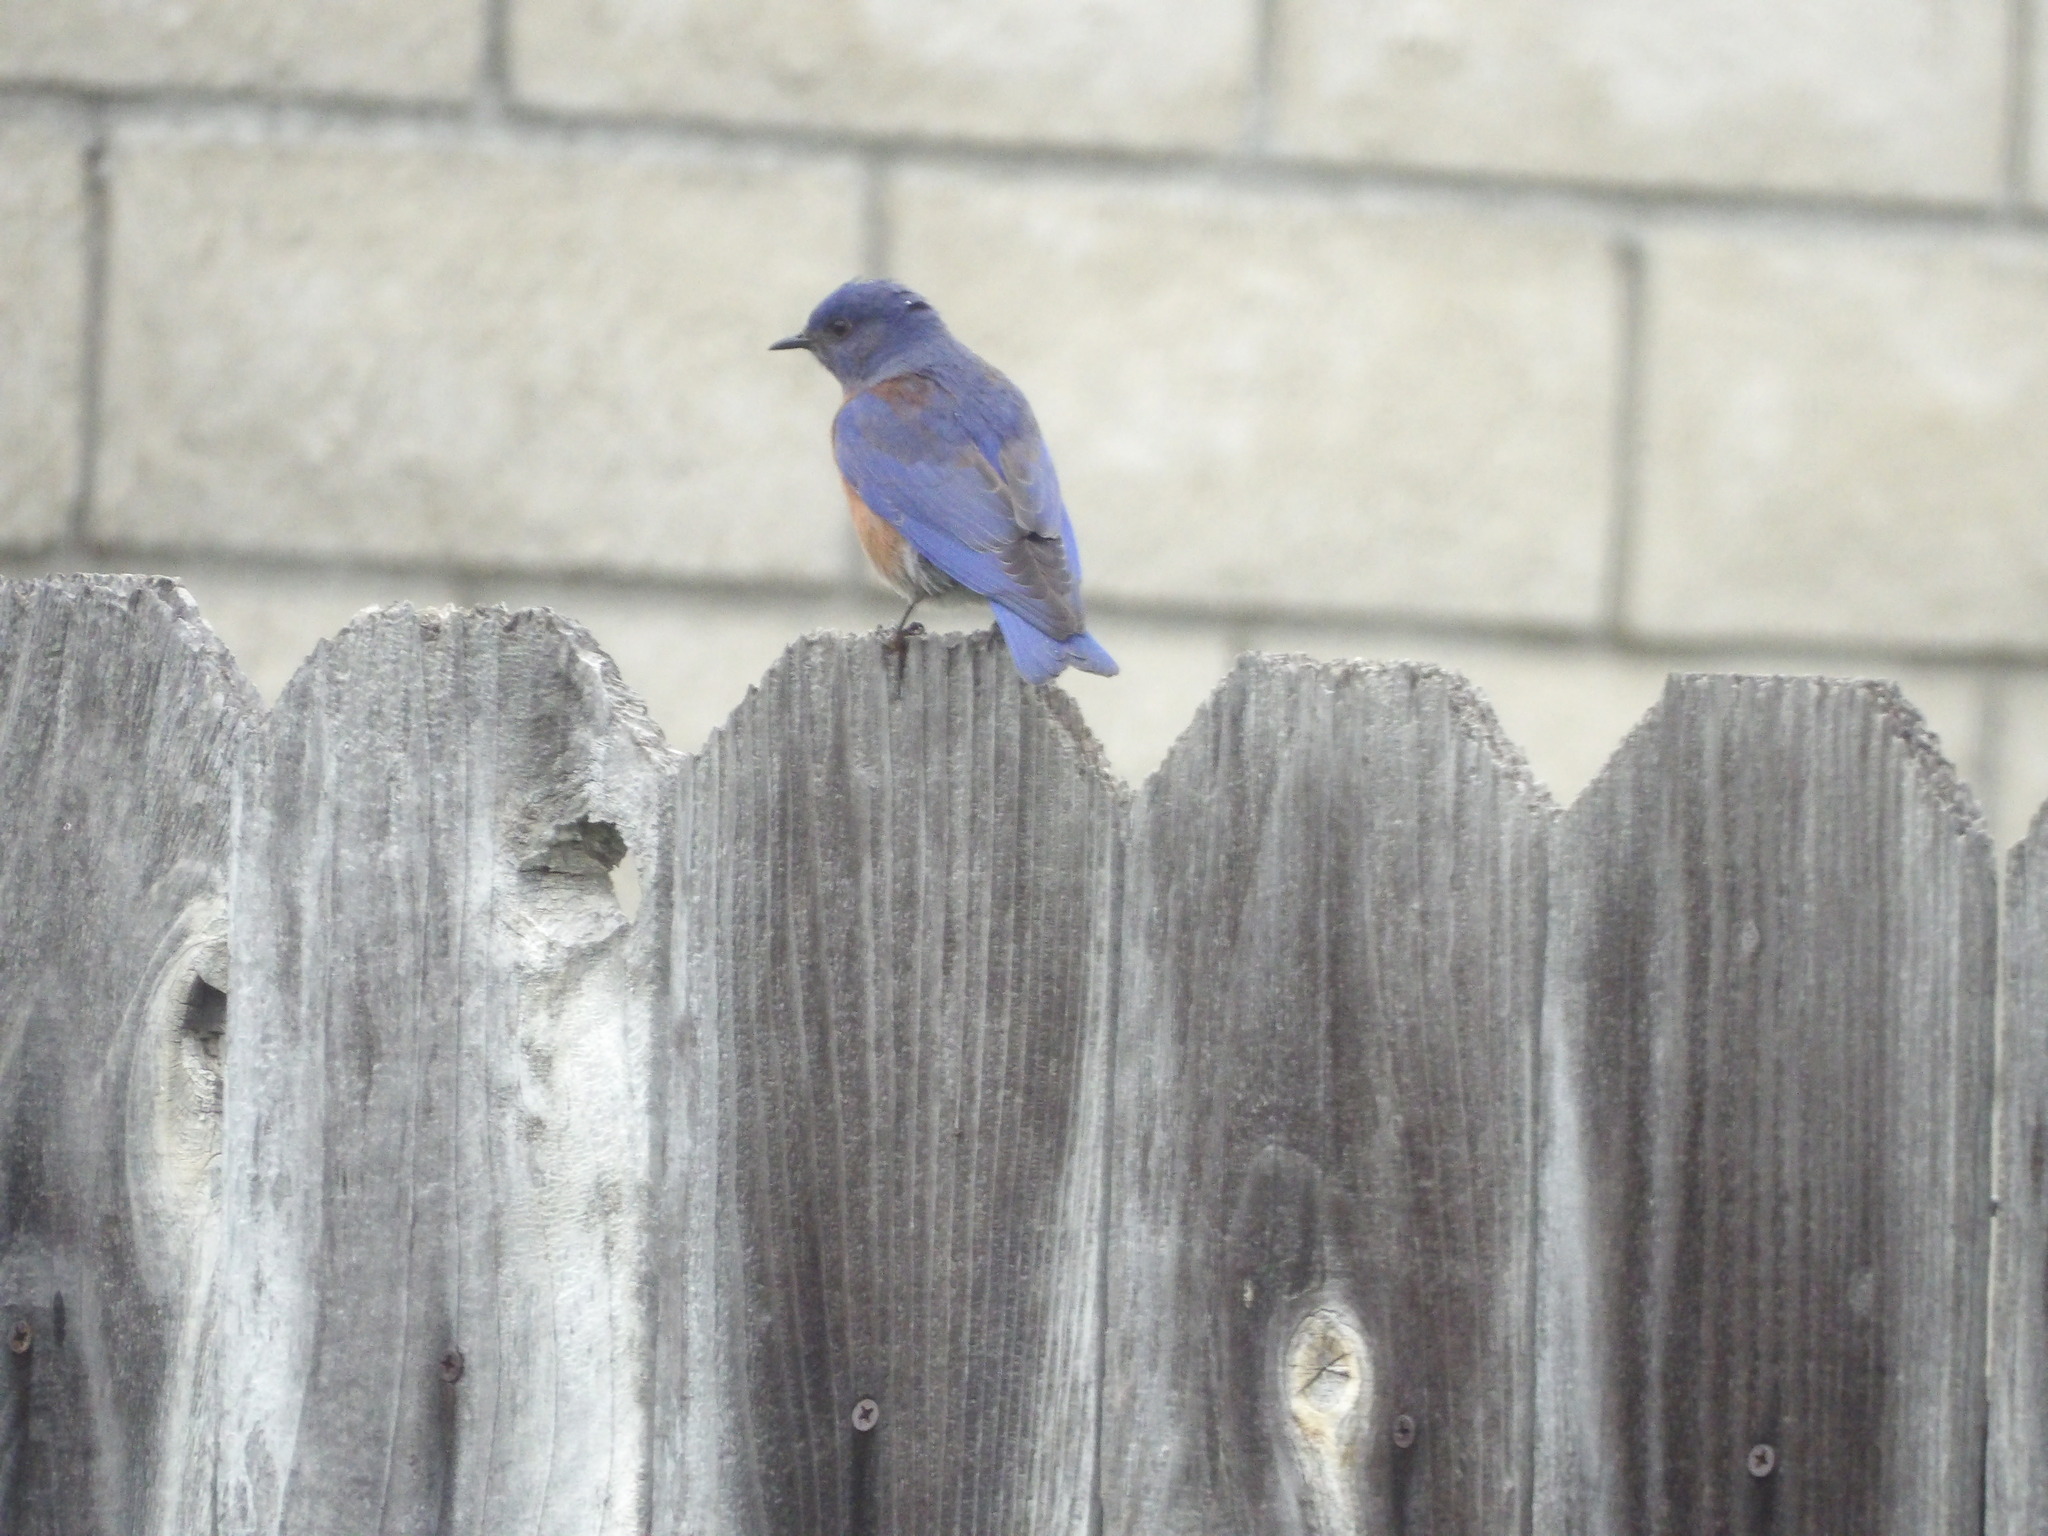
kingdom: Animalia
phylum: Chordata
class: Aves
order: Passeriformes
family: Turdidae
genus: Sialia
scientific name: Sialia mexicana
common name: Western bluebird
